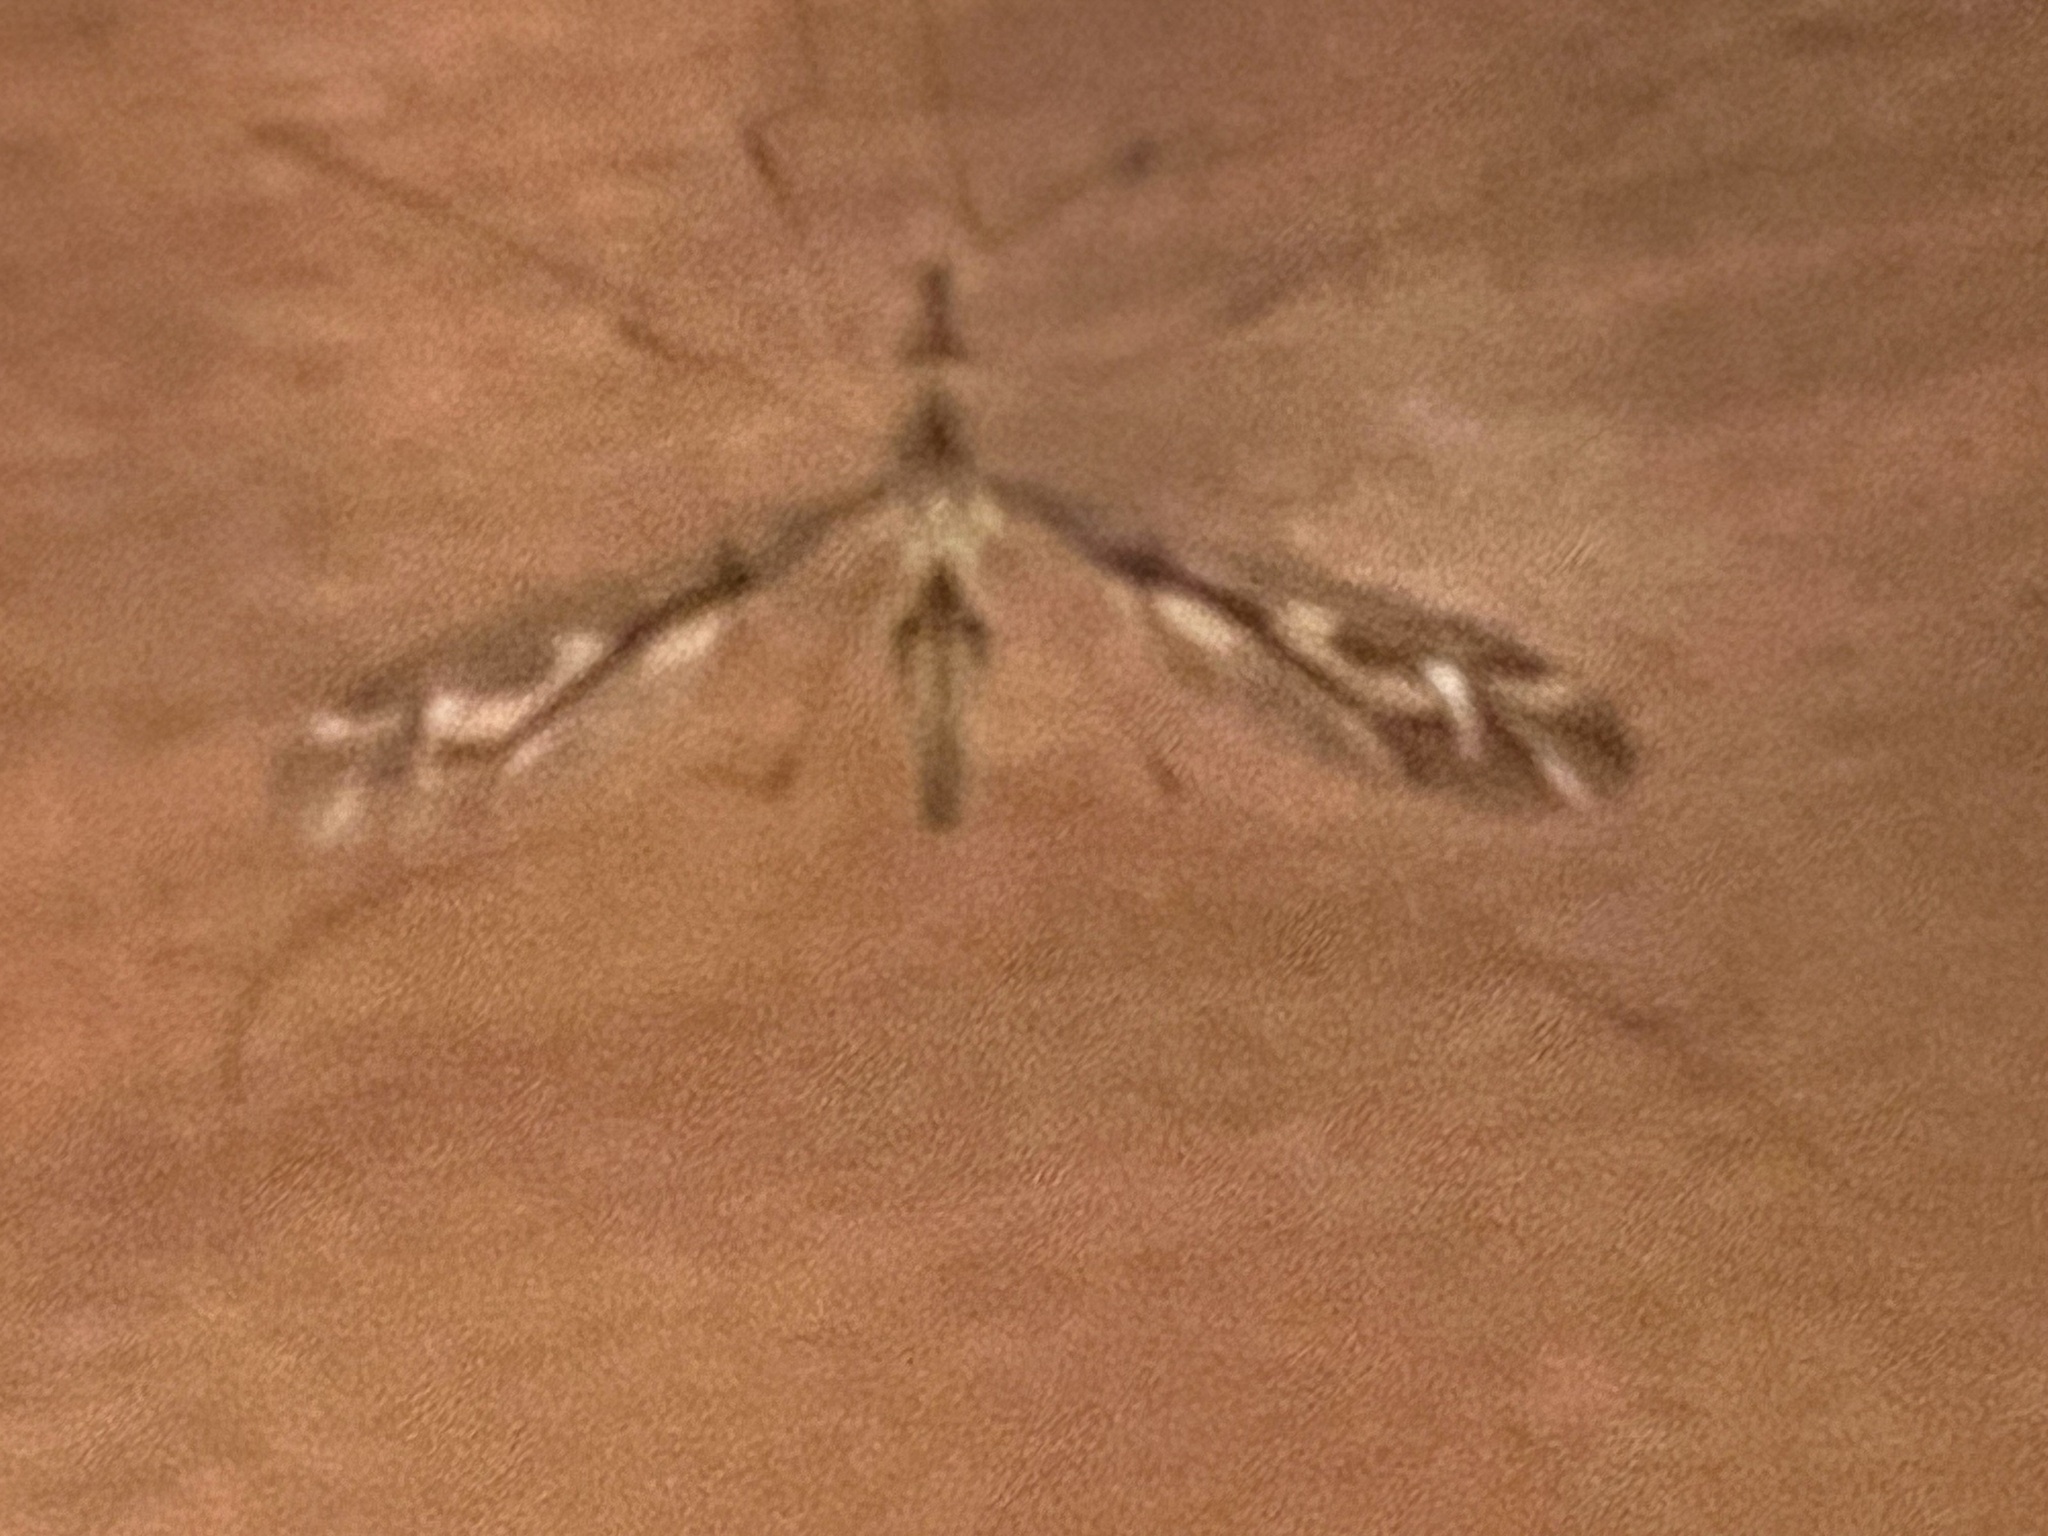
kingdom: Animalia
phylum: Arthropoda
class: Insecta
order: Diptera
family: Tipulidae
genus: Leptotarsus
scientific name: Leptotarsus huttoni
